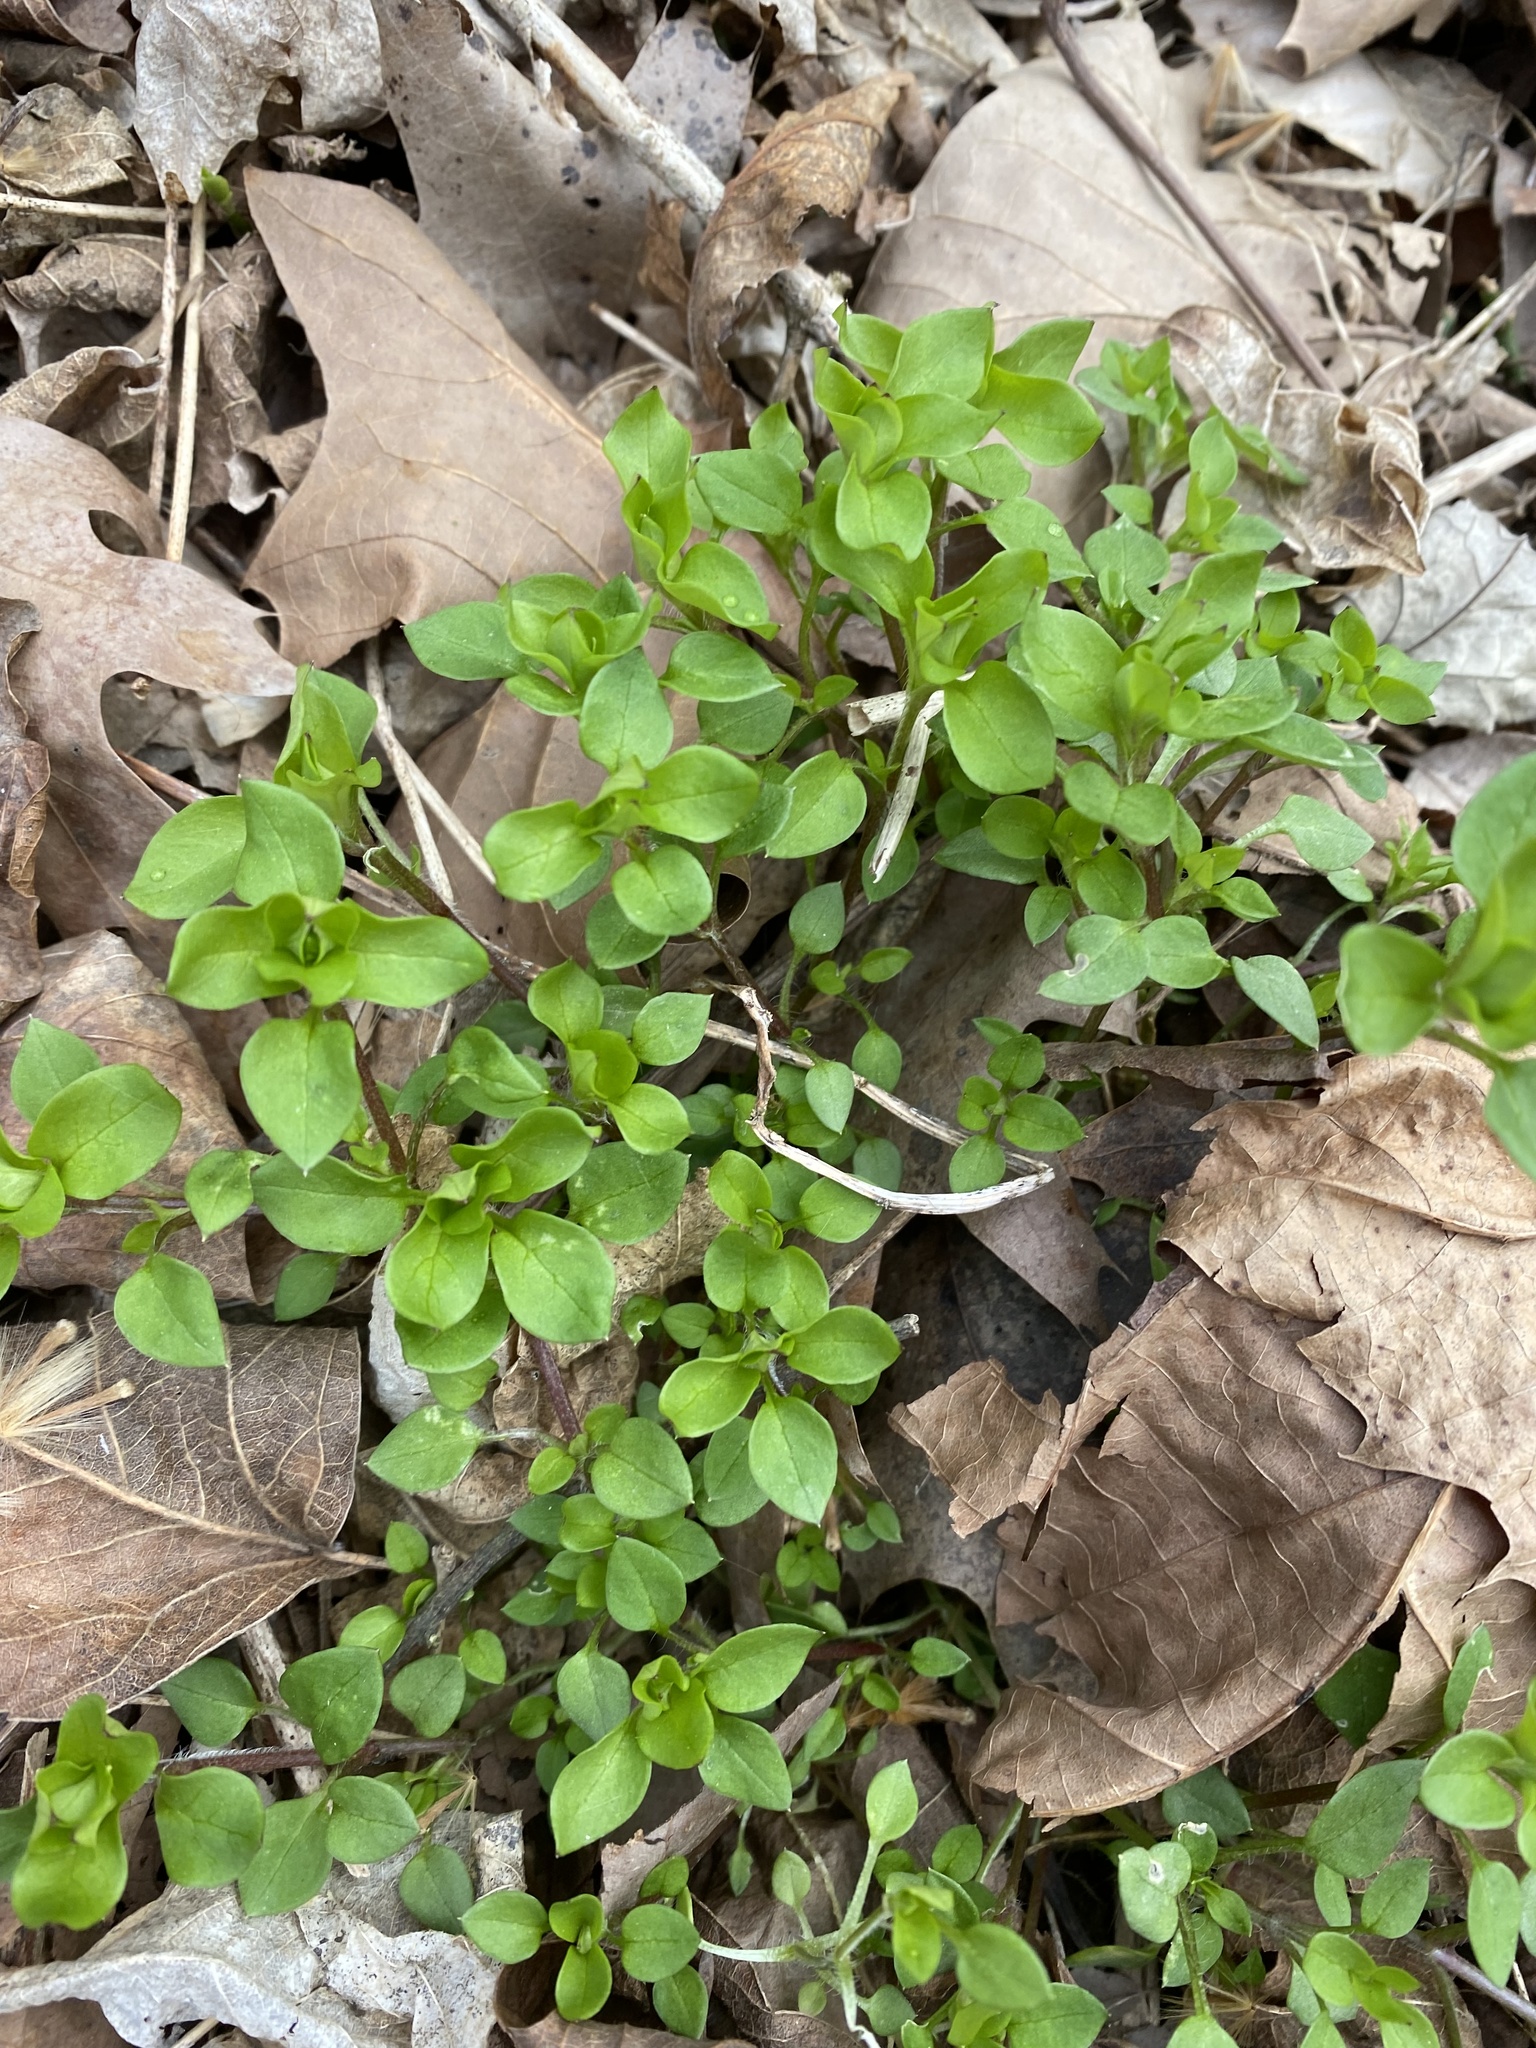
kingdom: Plantae
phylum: Tracheophyta
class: Magnoliopsida
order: Caryophyllales
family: Caryophyllaceae
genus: Stellaria
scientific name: Stellaria media
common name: Common chickweed
